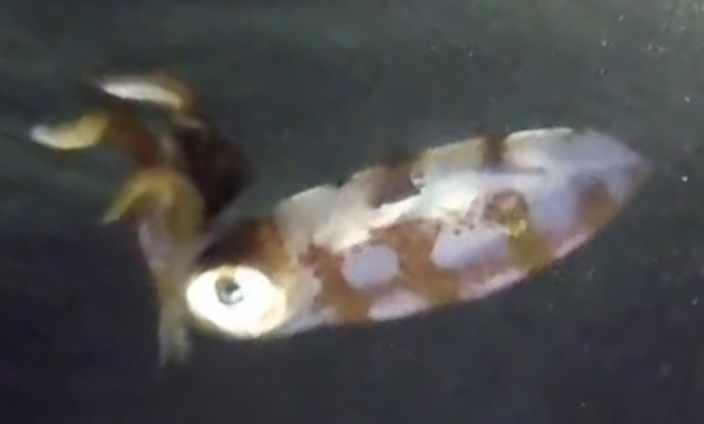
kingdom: Animalia
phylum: Mollusca
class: Cephalopoda
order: Myopsida
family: Loliginidae
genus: Sepioteuthis
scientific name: Sepioteuthis sepioidea
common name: Caribbean reef squid
